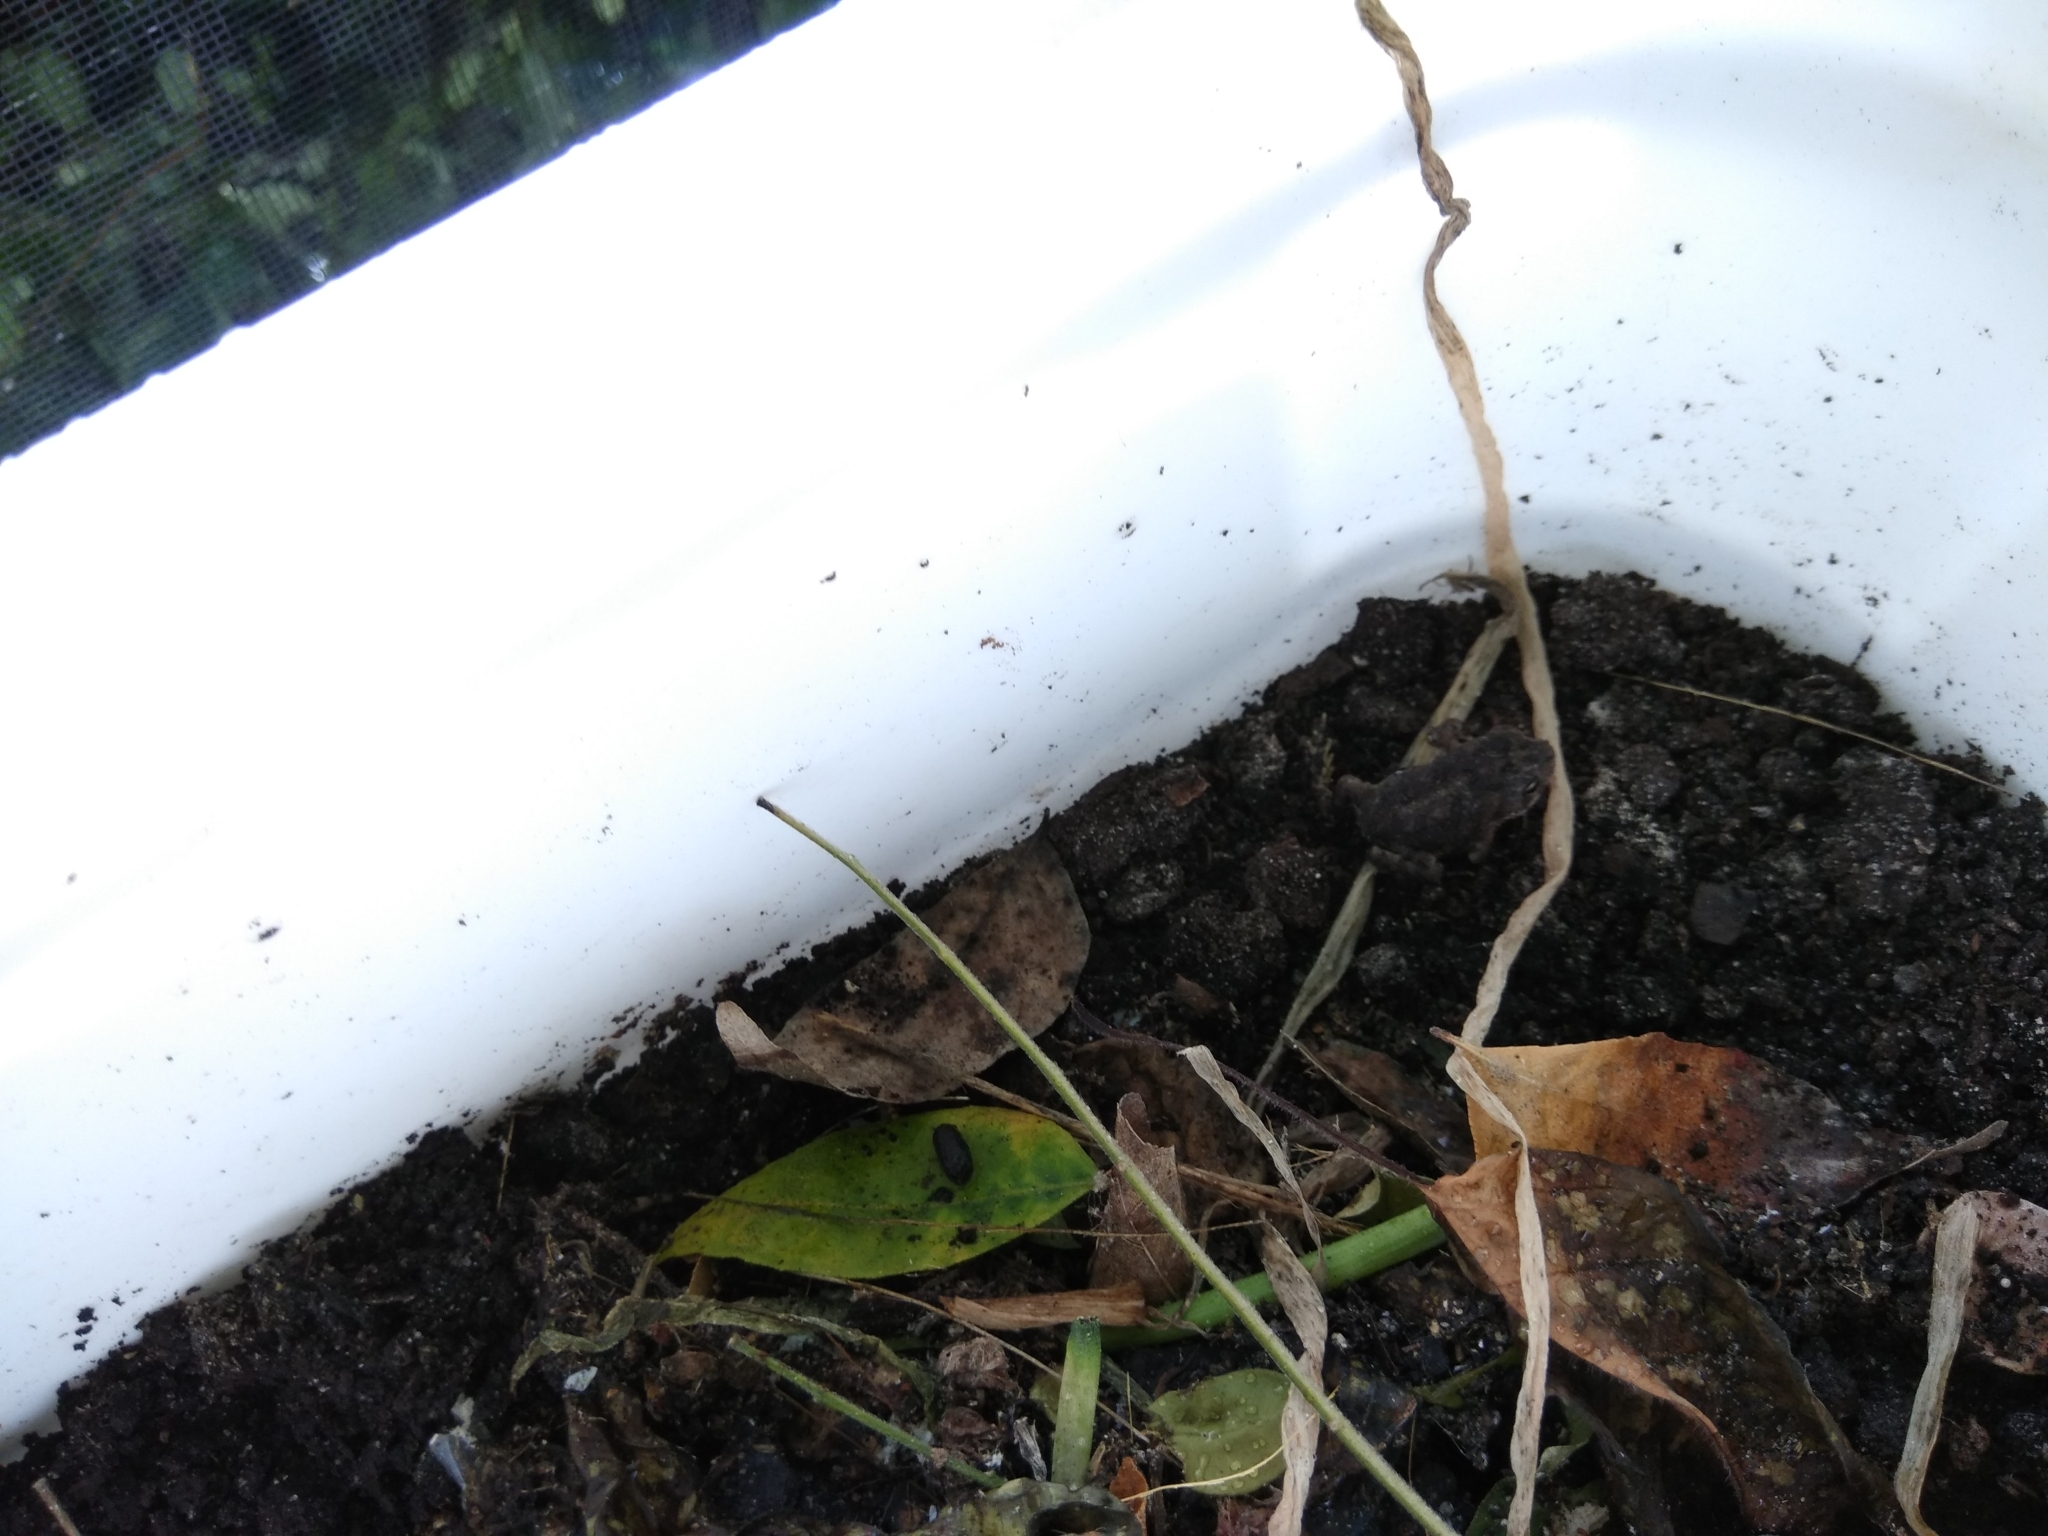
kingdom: Animalia
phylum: Chordata
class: Amphibia
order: Anura
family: Bufonidae
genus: Anaxyrus
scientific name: Anaxyrus terrestris
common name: Southern toad
